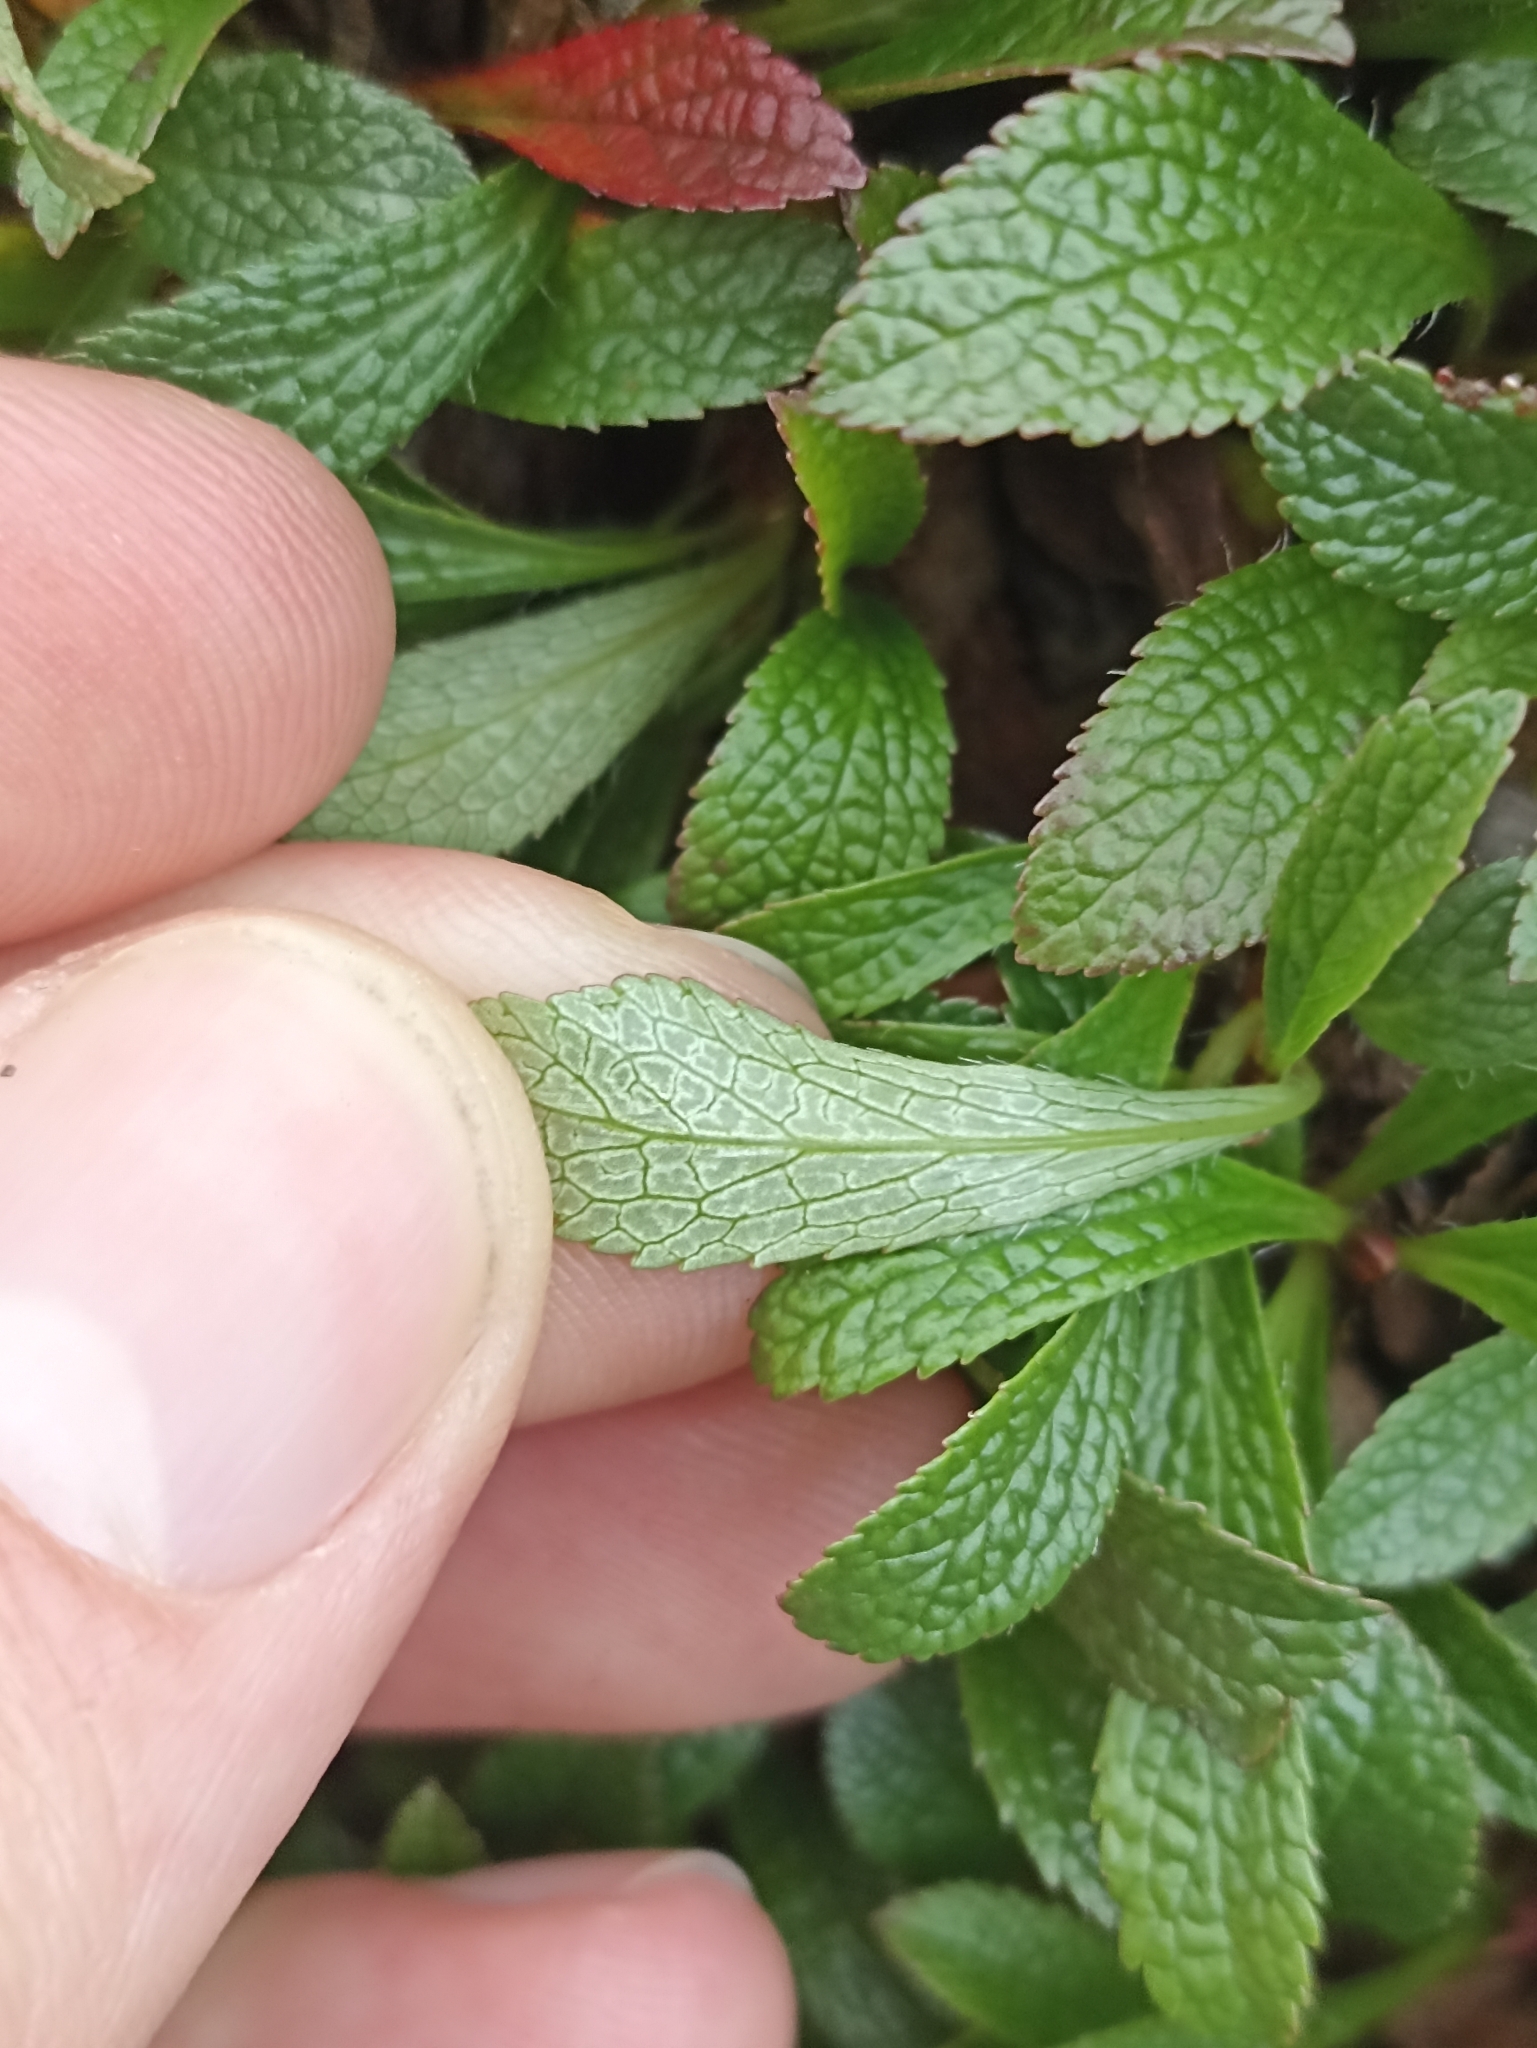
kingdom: Plantae
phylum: Tracheophyta
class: Magnoliopsida
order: Ericales
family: Ericaceae
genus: Arctostaphylos
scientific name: Arctostaphylos alpinus
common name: Alpine bearberry
